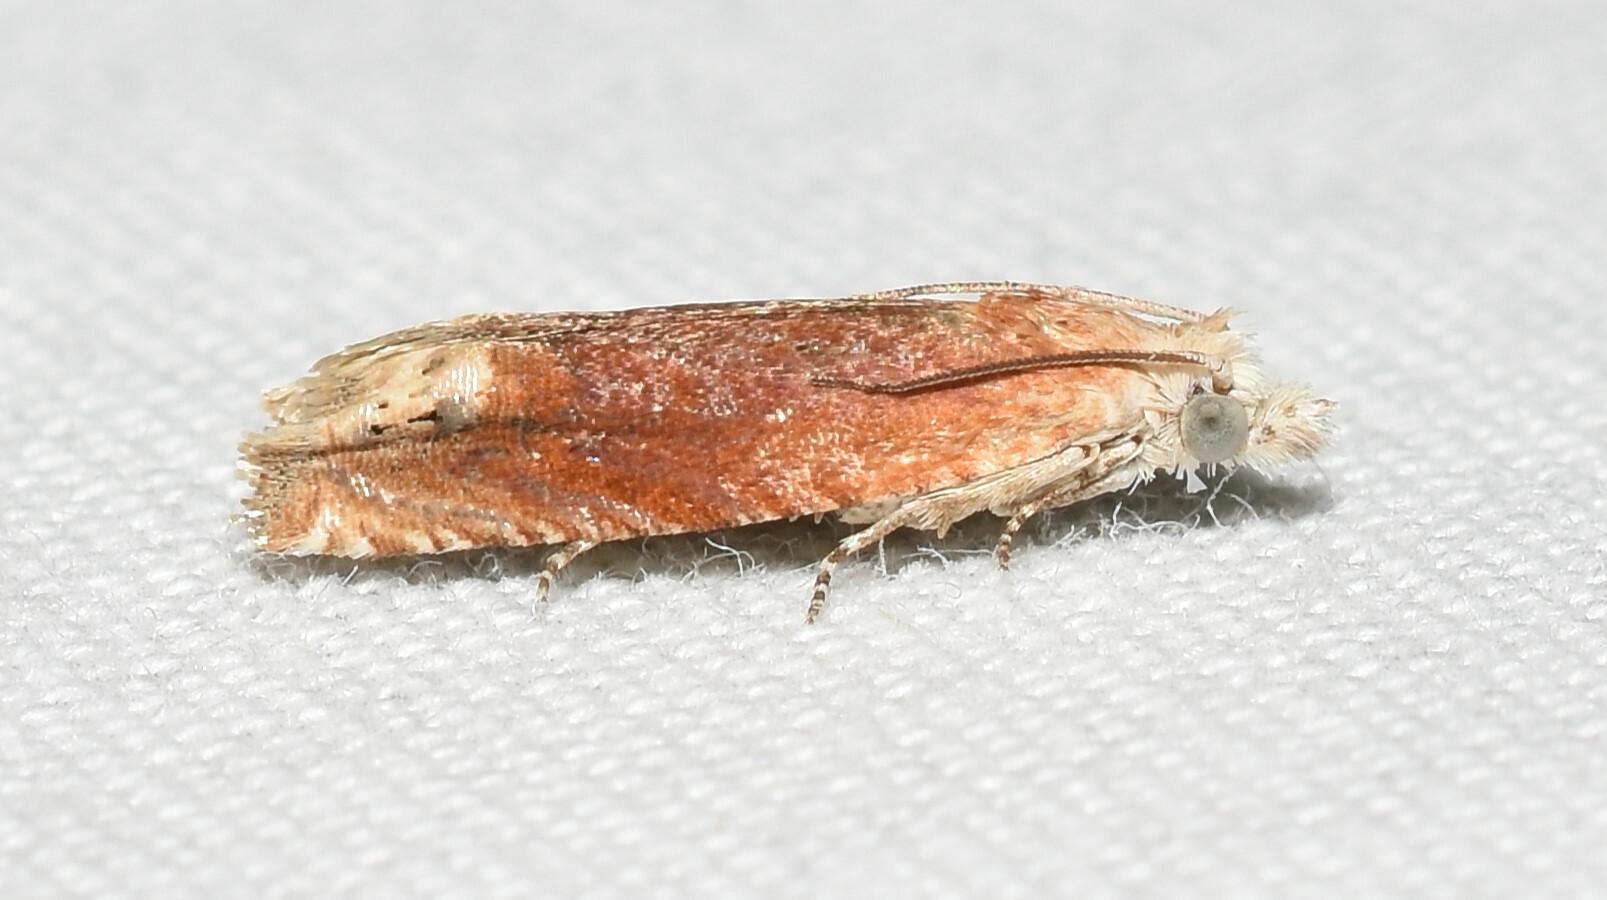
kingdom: Animalia
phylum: Arthropoda
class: Insecta
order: Lepidoptera
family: Tortricidae
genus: Eucosma
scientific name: Eucosma raracana
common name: Reddish eucosma moth
